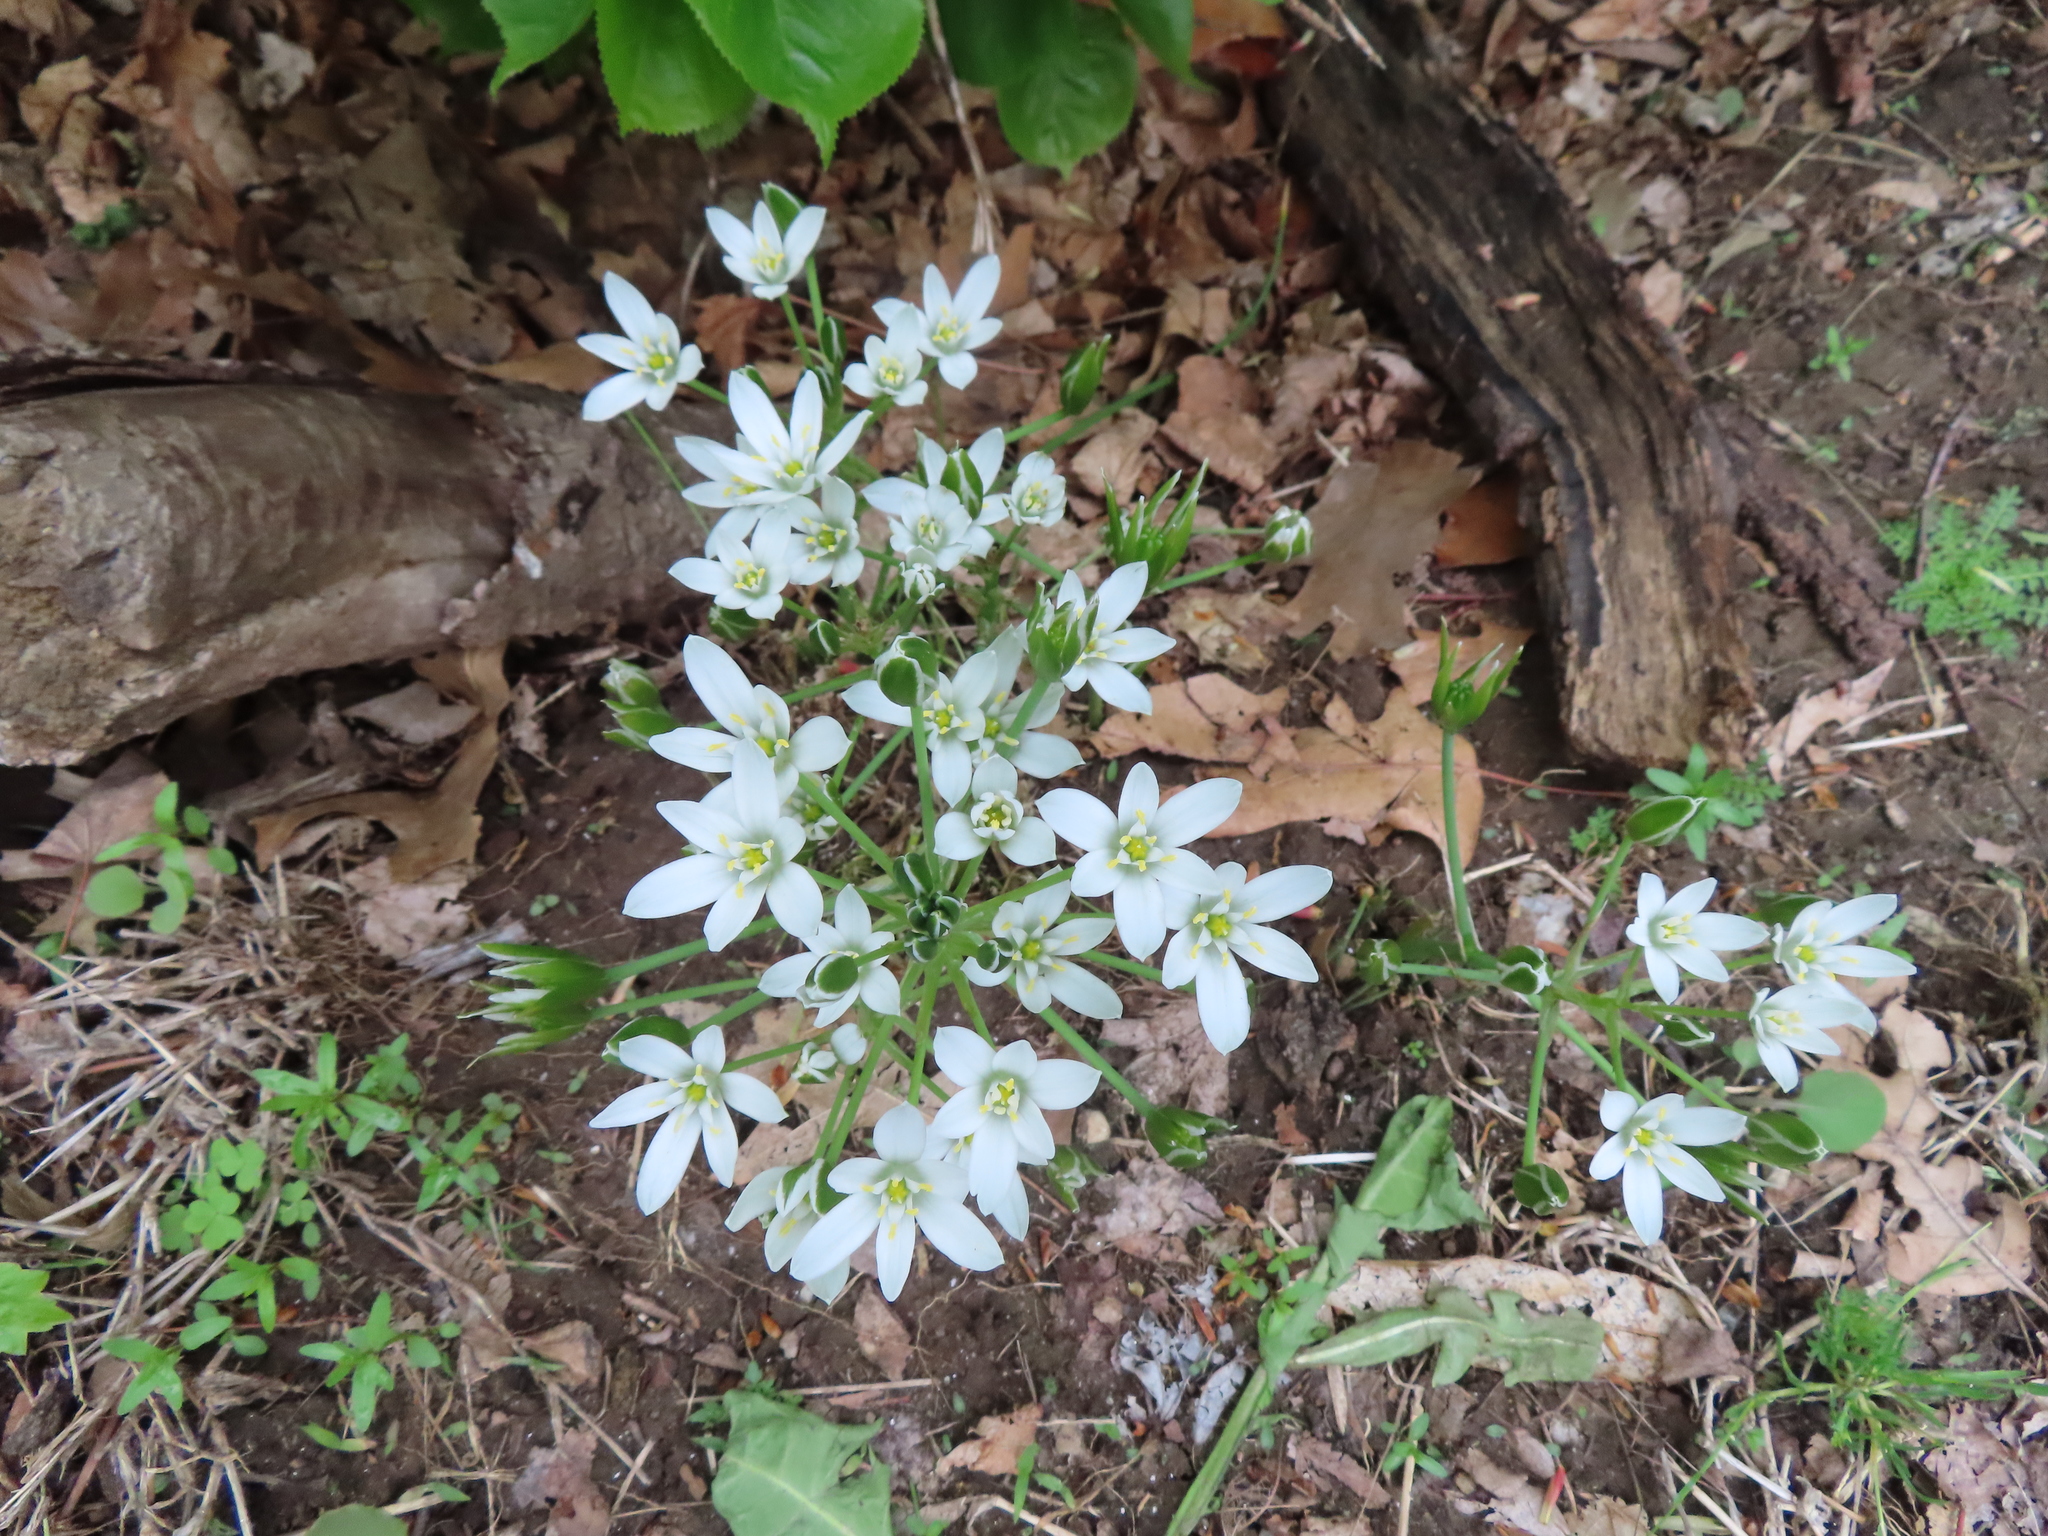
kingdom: Plantae
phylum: Tracheophyta
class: Liliopsida
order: Asparagales
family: Asparagaceae
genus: Ornithogalum
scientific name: Ornithogalum umbellatum
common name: Garden star-of-bethlehem
